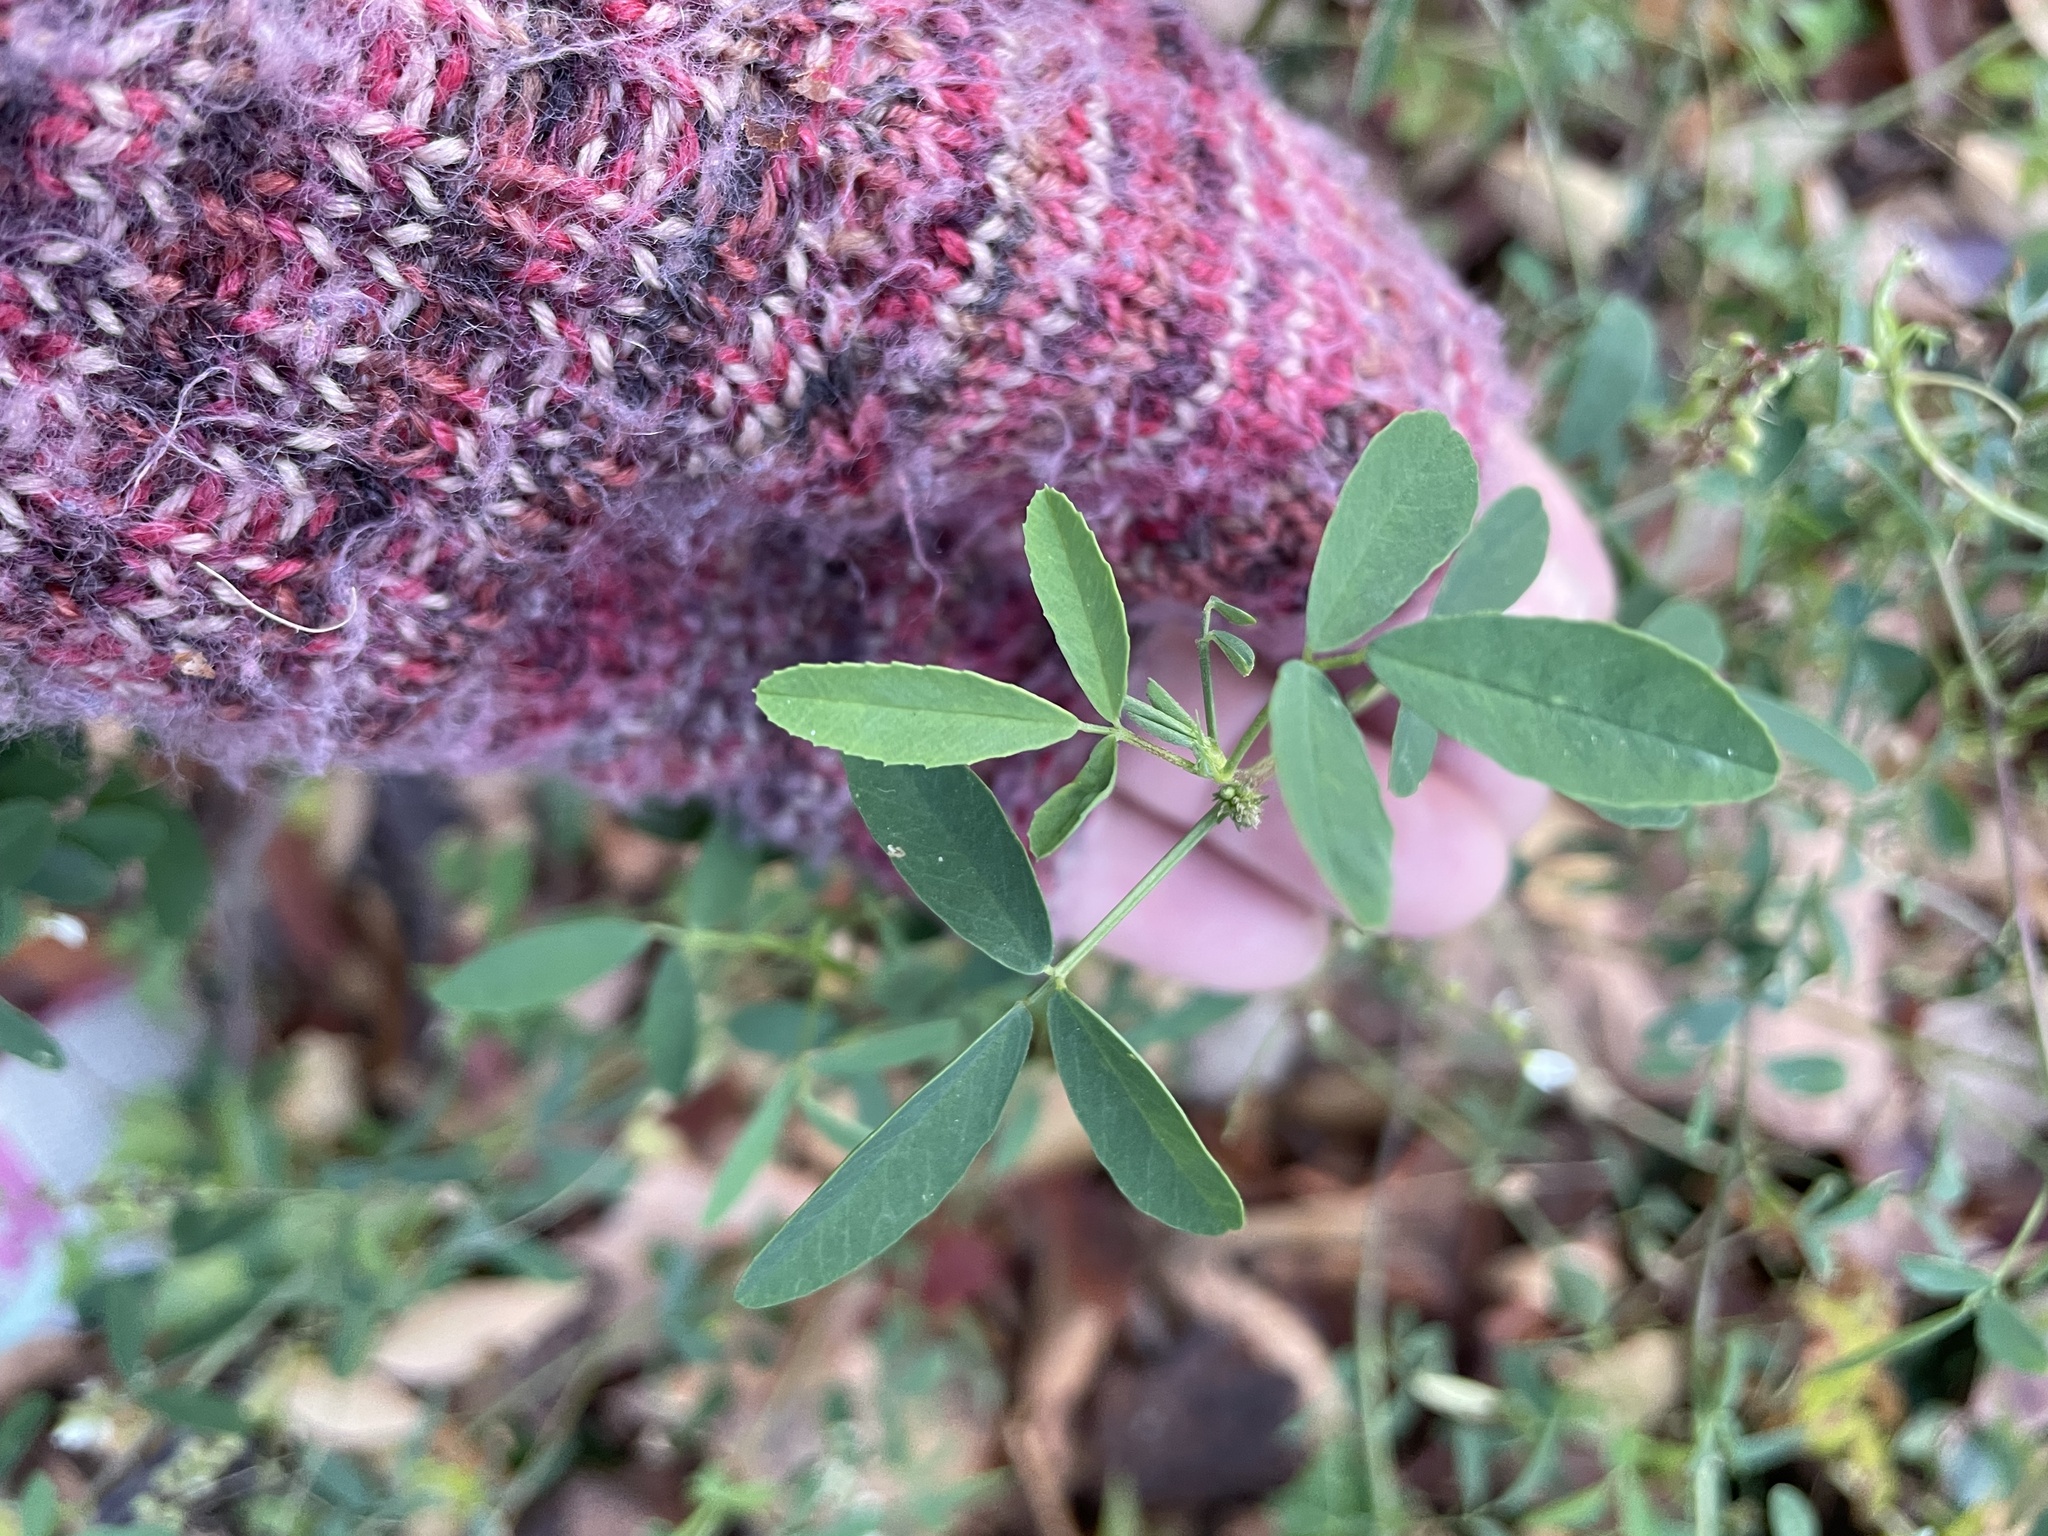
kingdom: Plantae
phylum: Tracheophyta
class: Magnoliopsida
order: Fabales
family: Fabaceae
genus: Melilotus
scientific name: Melilotus albus
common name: White melilot
